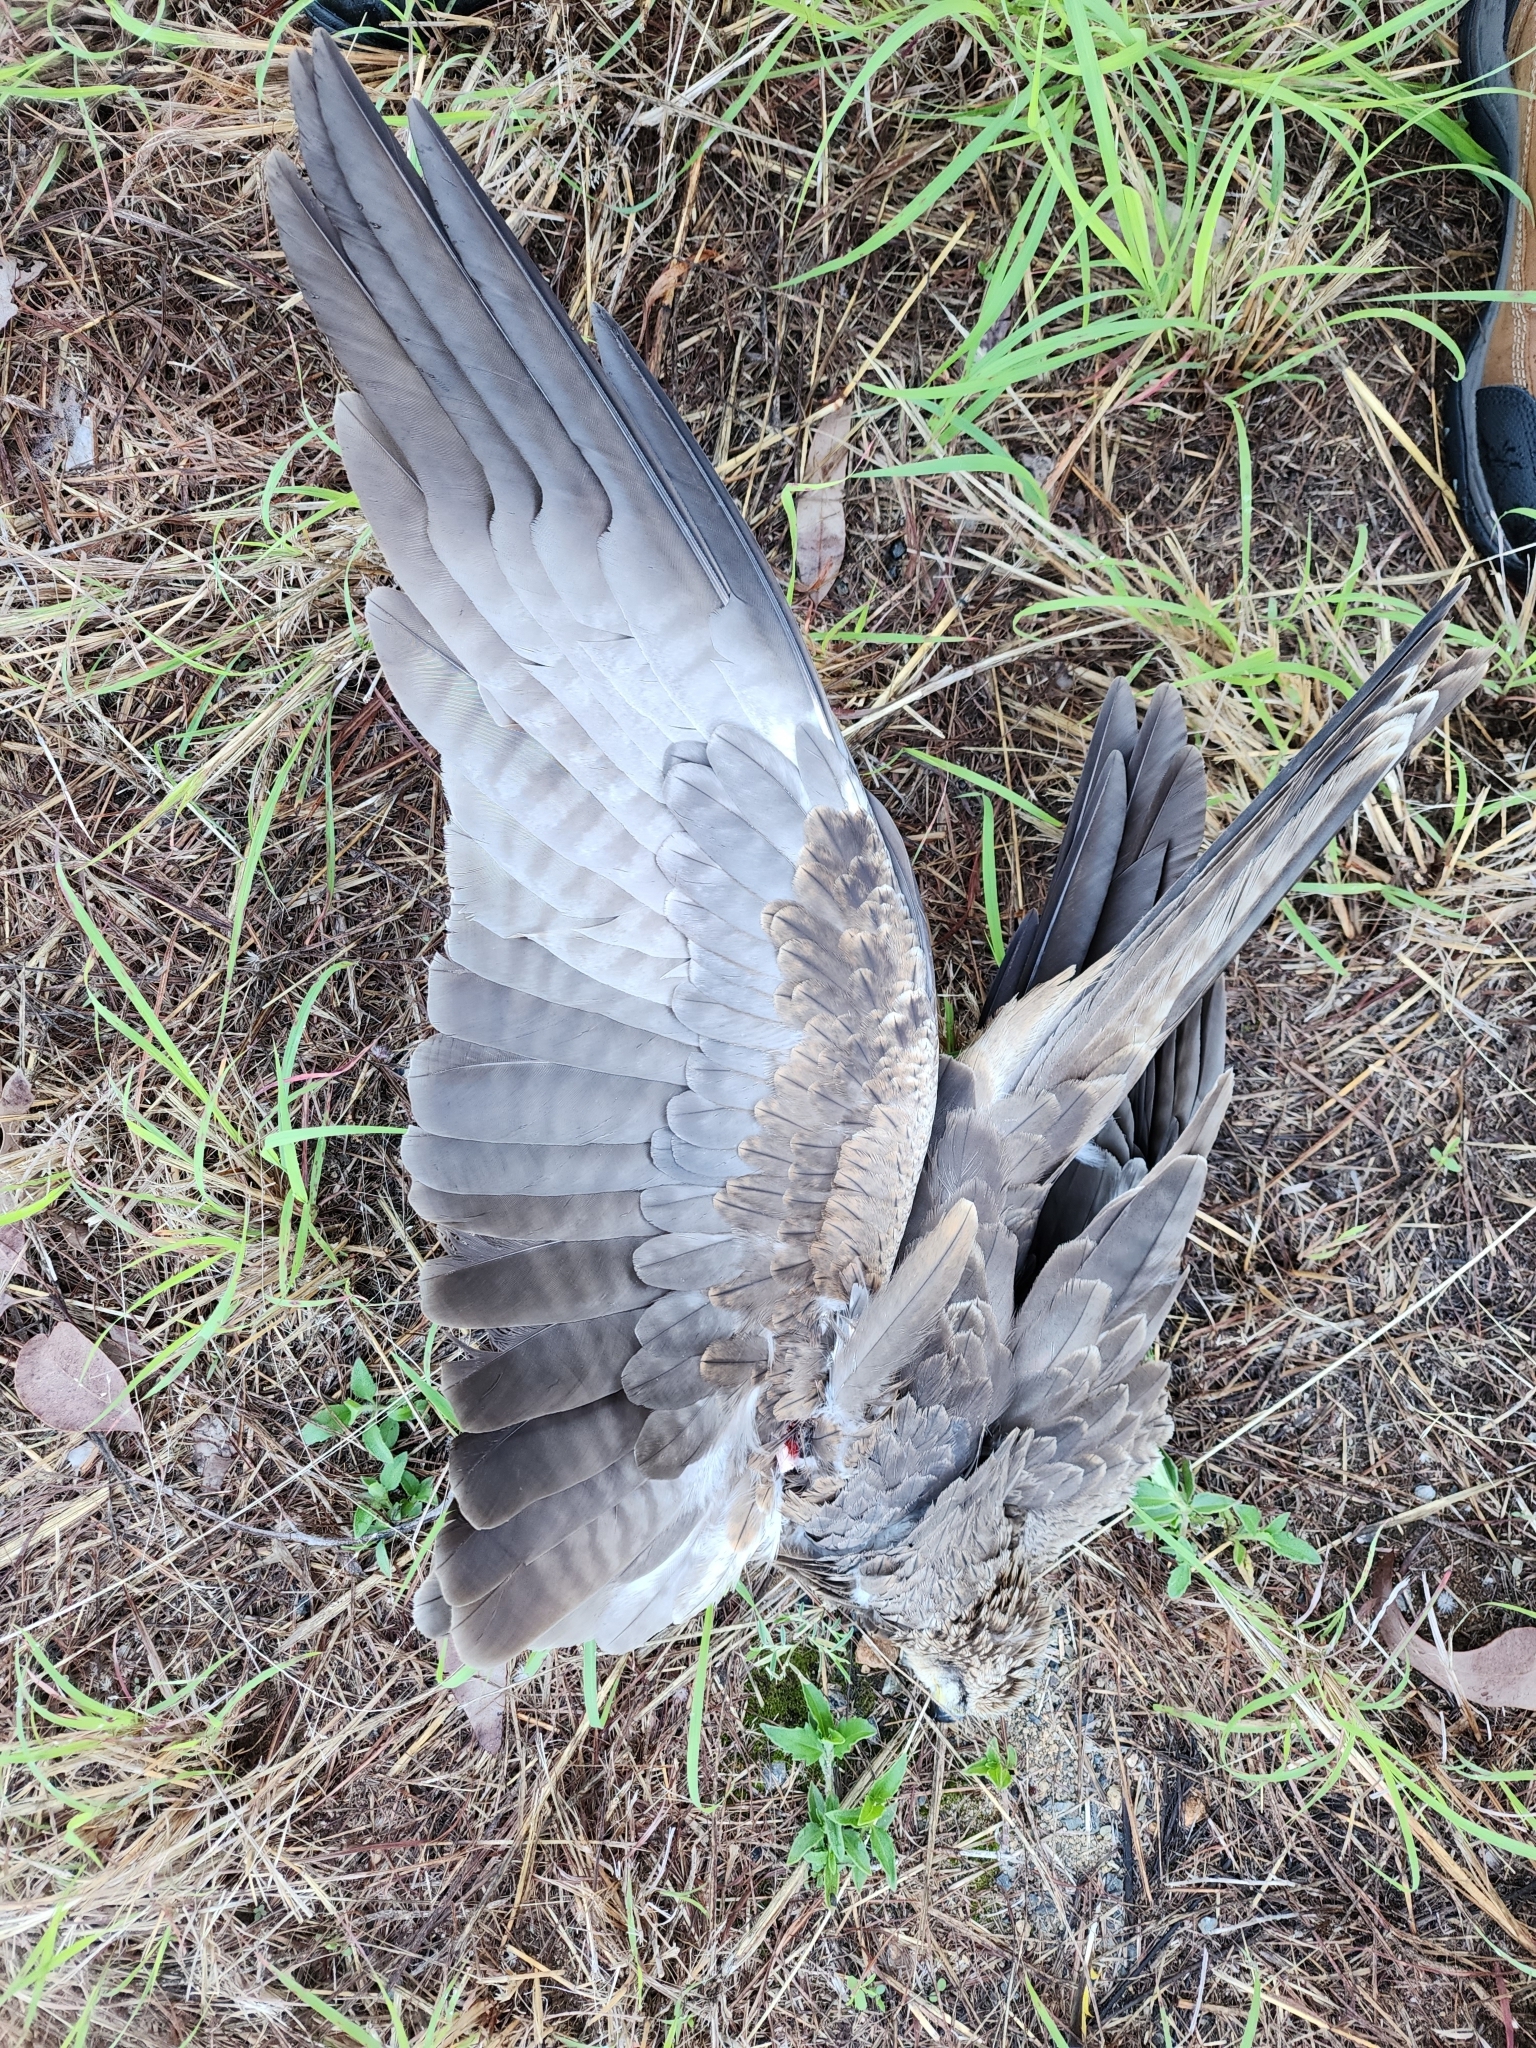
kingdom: Animalia
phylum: Chordata
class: Aves
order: Accipitriformes
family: Accipitridae
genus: Milvus
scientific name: Milvus migrans
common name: Black kite
